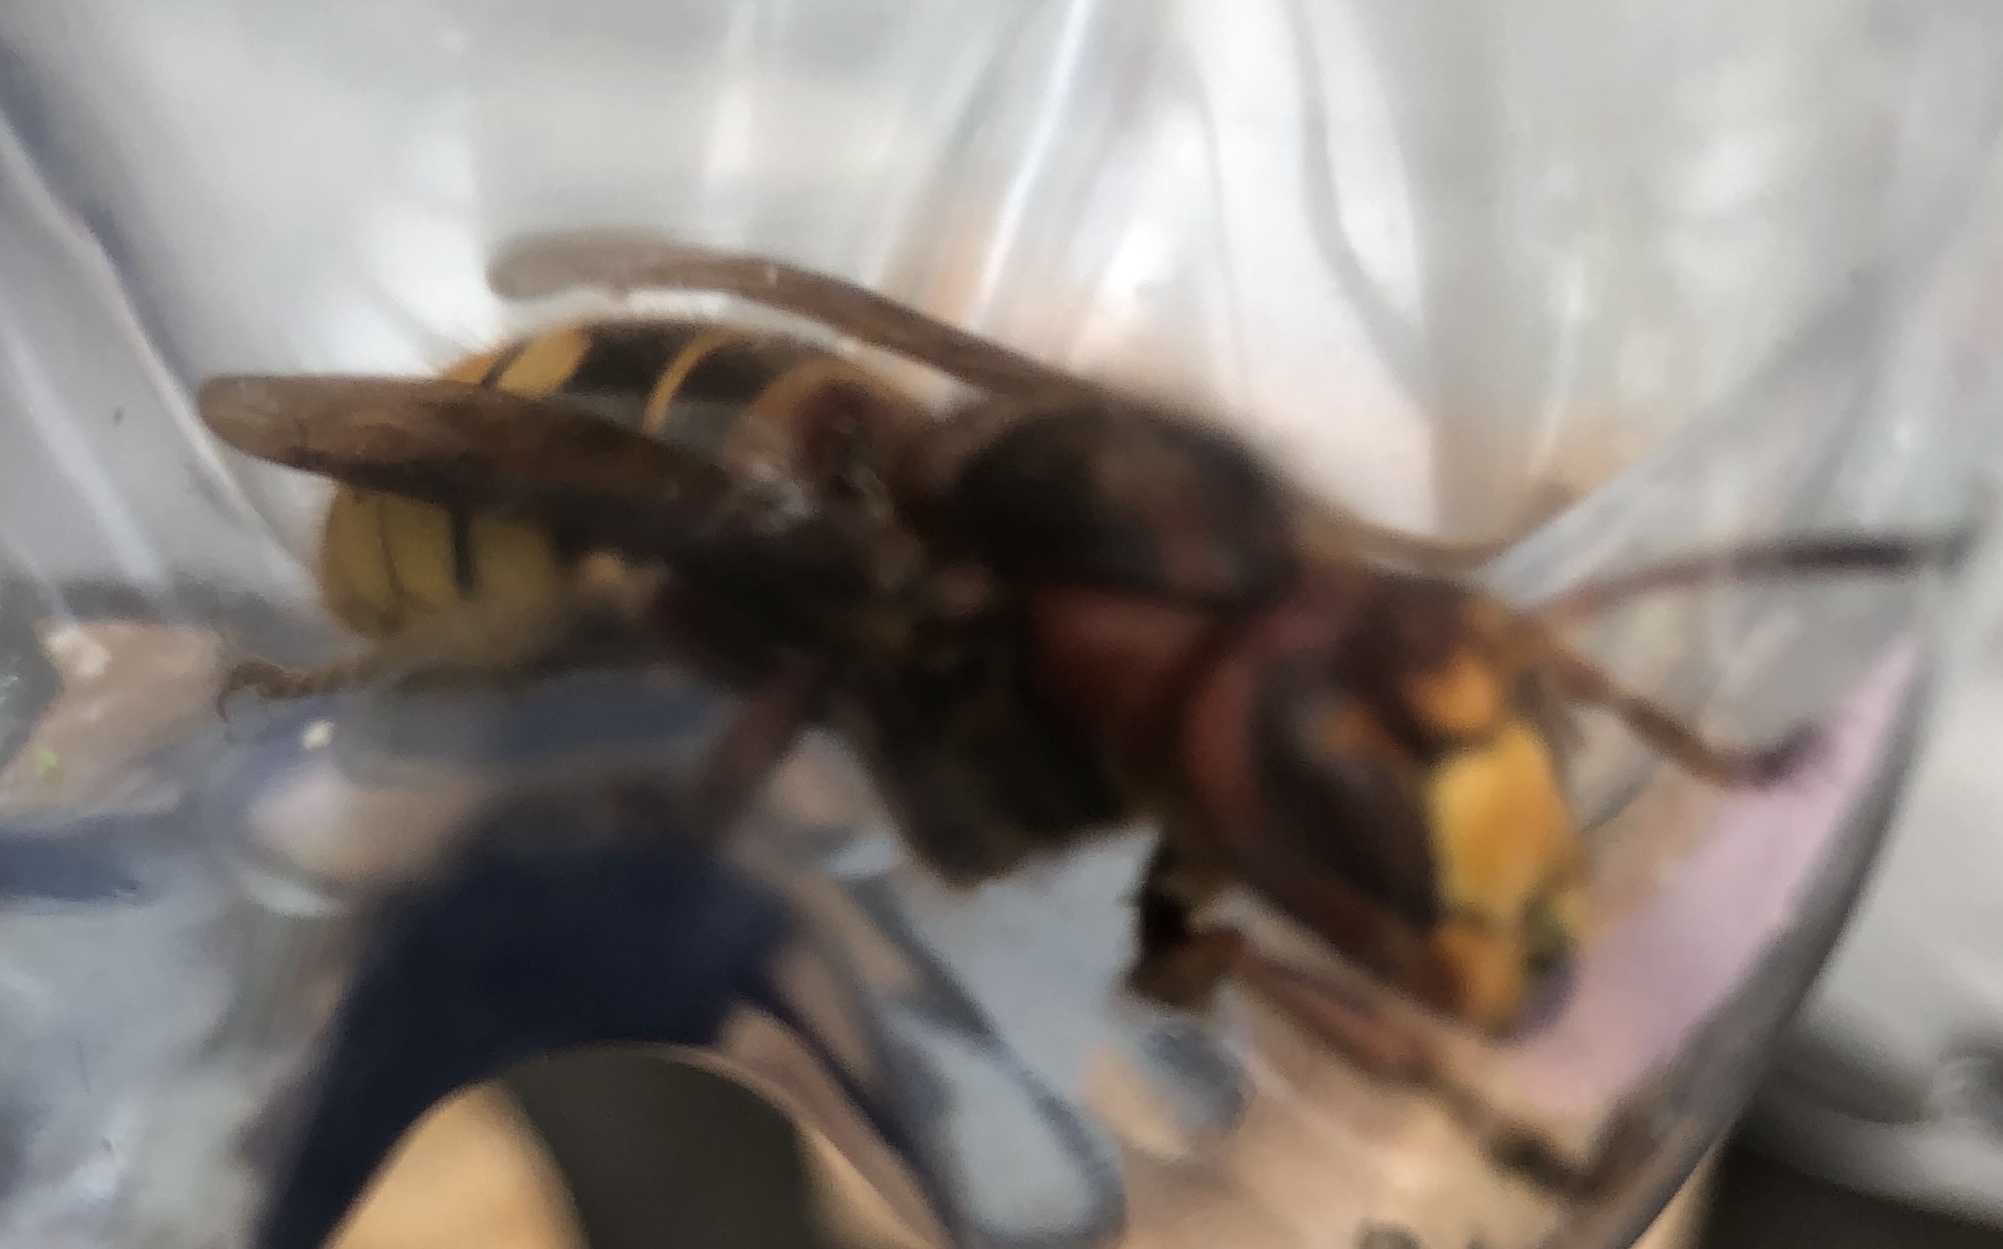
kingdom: Animalia
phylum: Arthropoda
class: Insecta
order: Hymenoptera
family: Vespidae
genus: Vespa
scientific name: Vespa crabro
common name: Hornet
